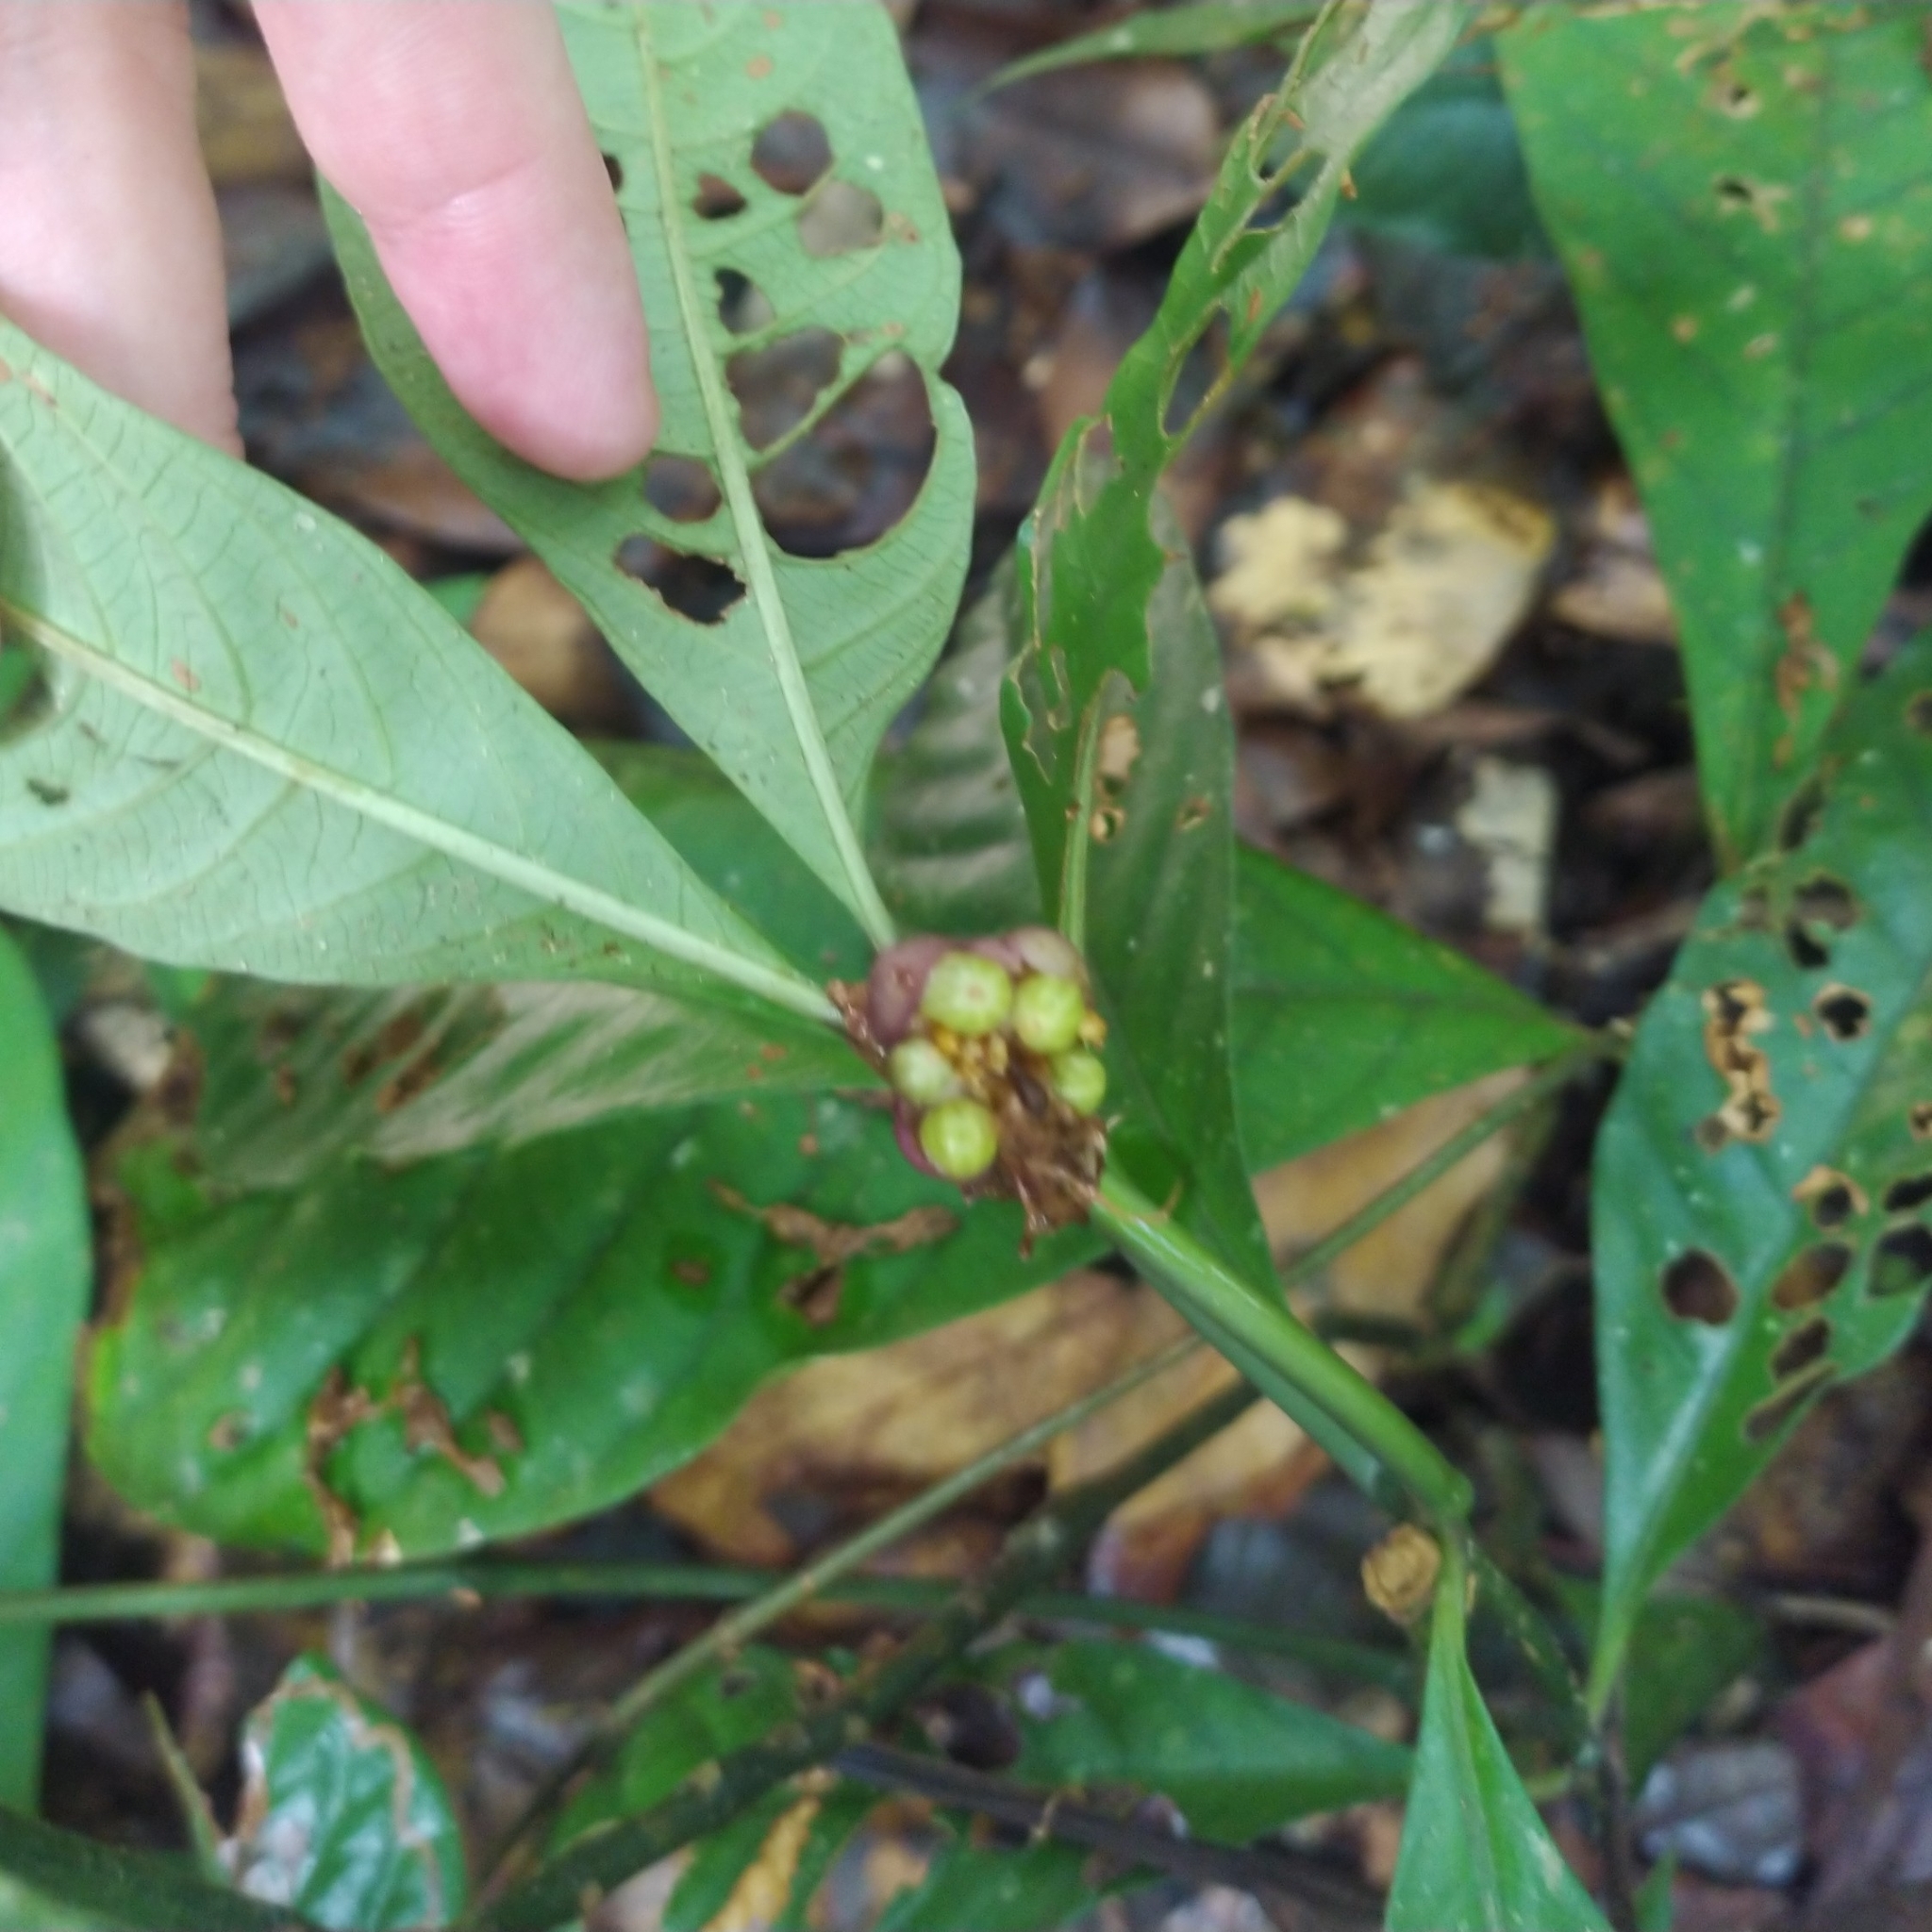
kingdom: Plantae
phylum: Tracheophyta
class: Magnoliopsida
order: Gentianales
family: Rubiaceae
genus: Palicourea
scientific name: Palicourea dichotoma
